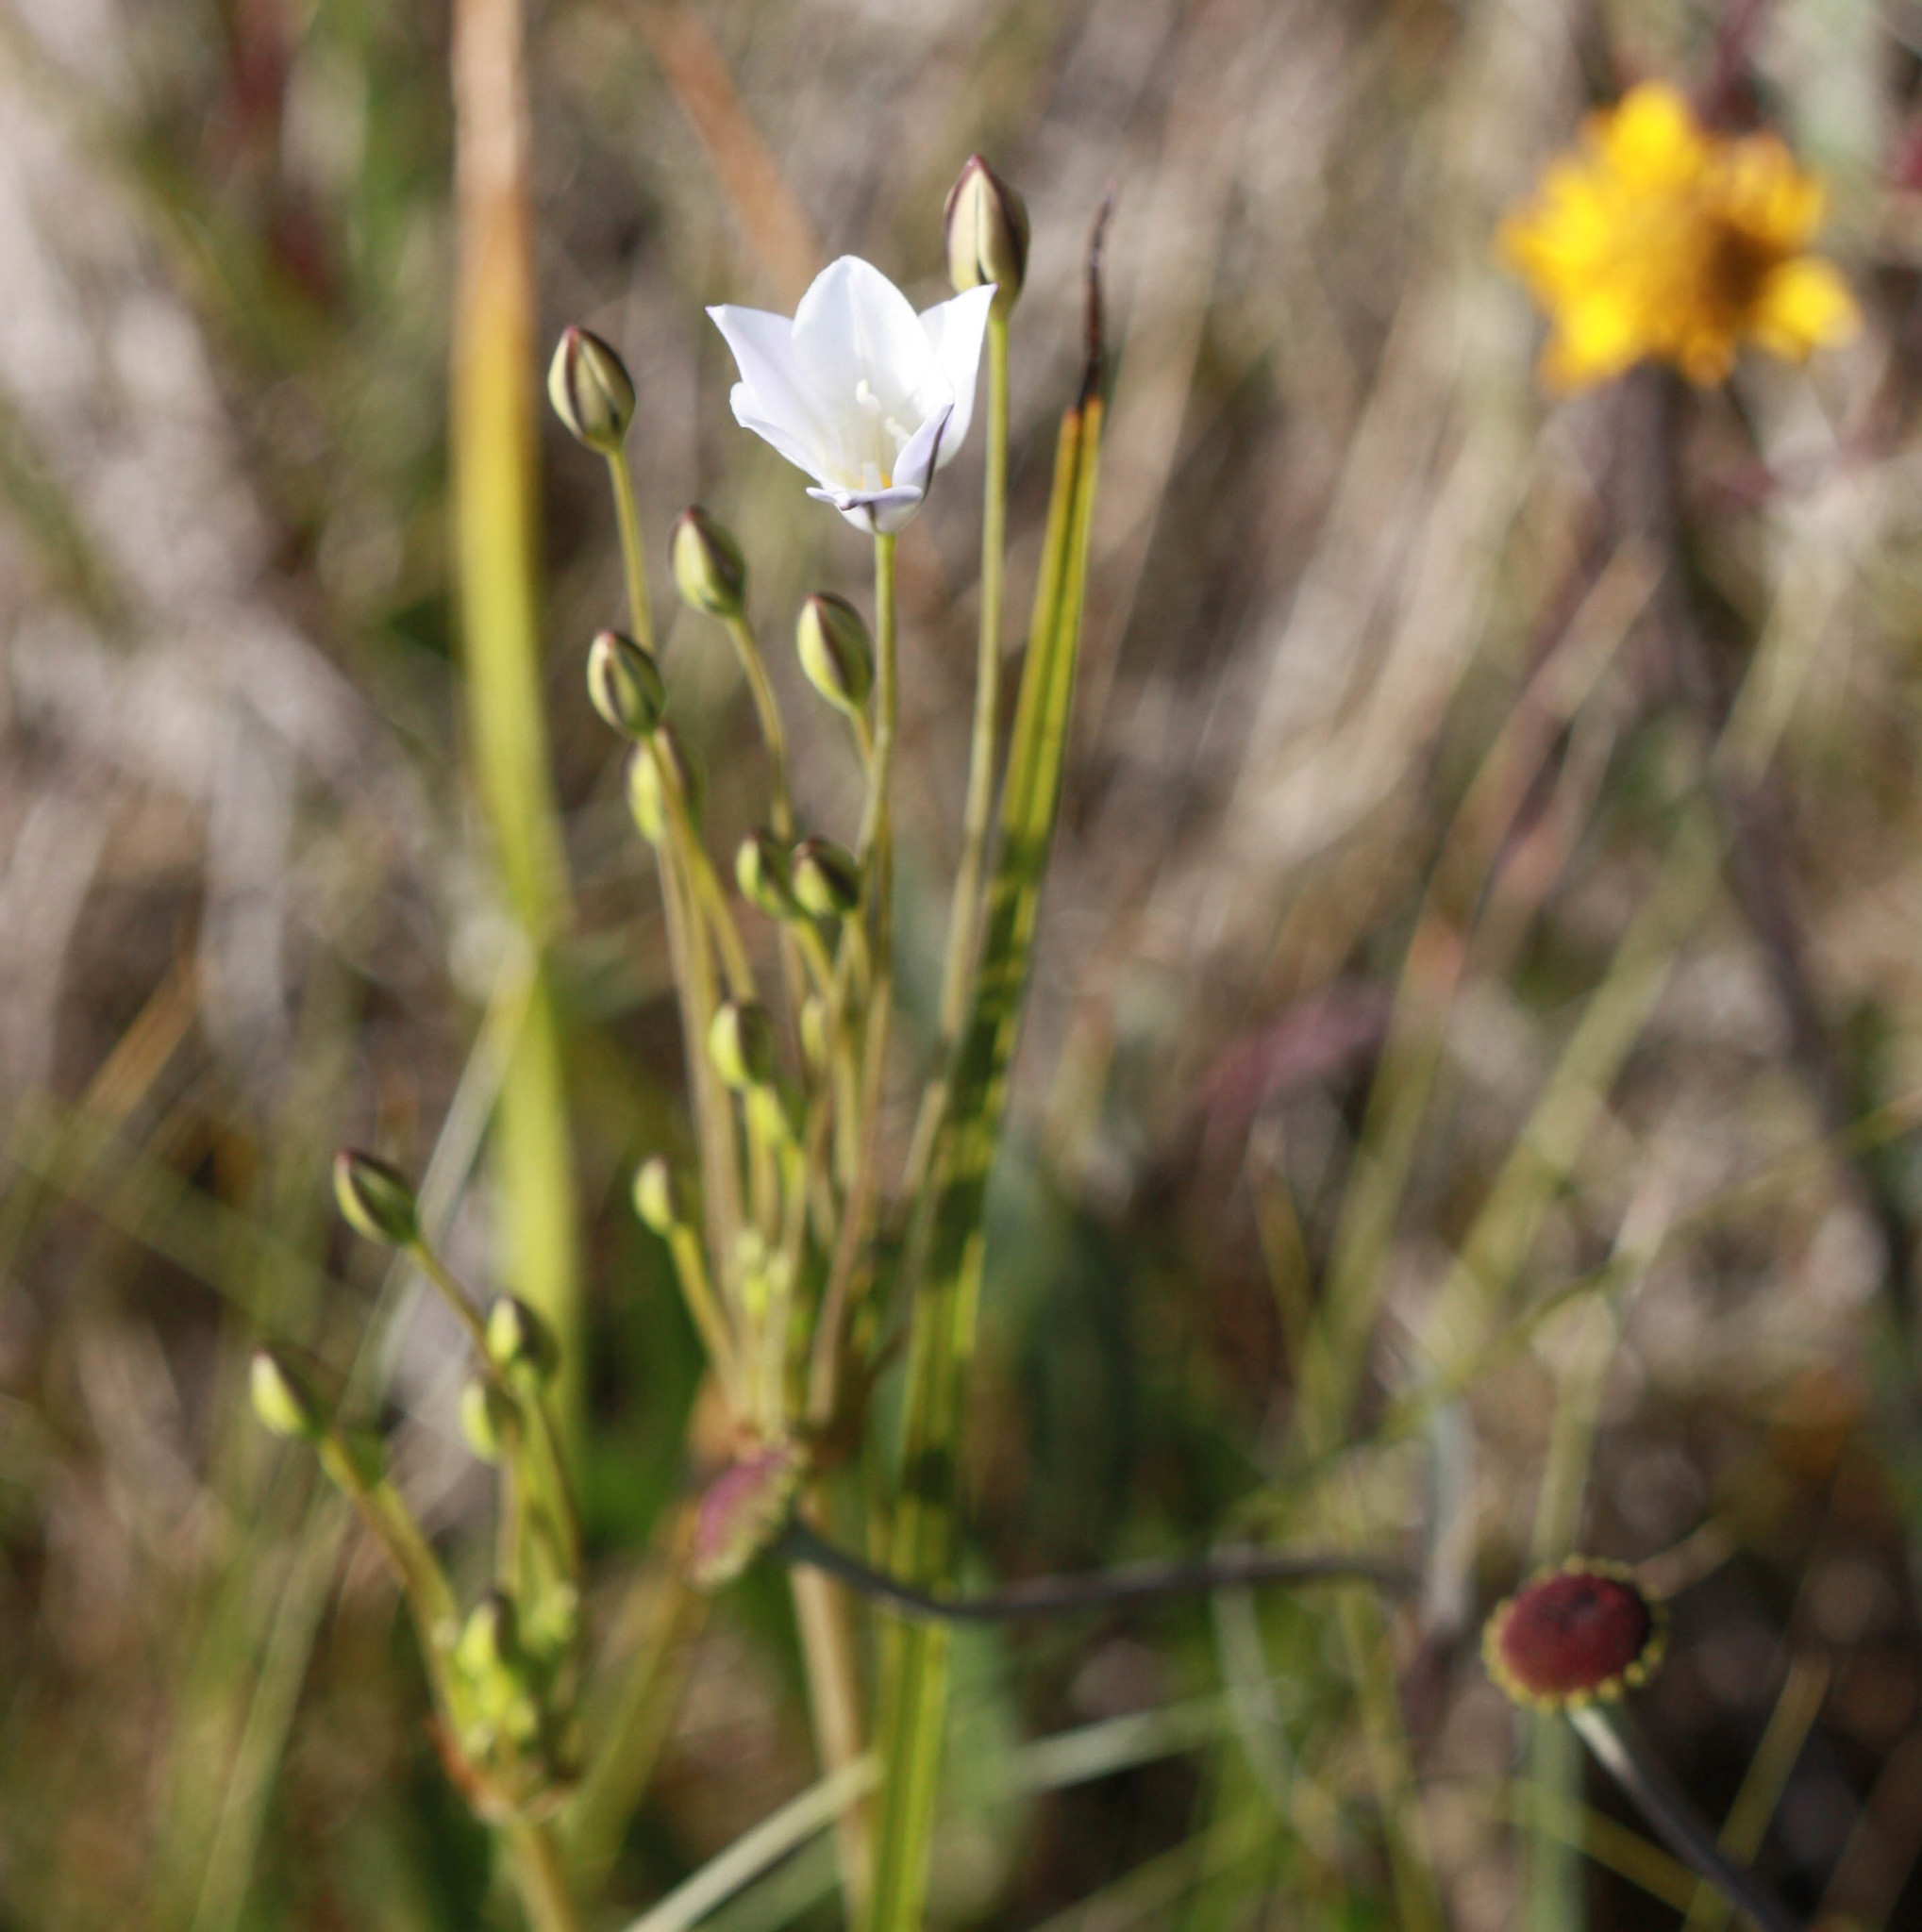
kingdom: Plantae
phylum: Tracheophyta
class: Liliopsida
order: Asparagales
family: Asparagaceae
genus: Triteleia
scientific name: Triteleia peduncularis
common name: Long-ray brodiaea
